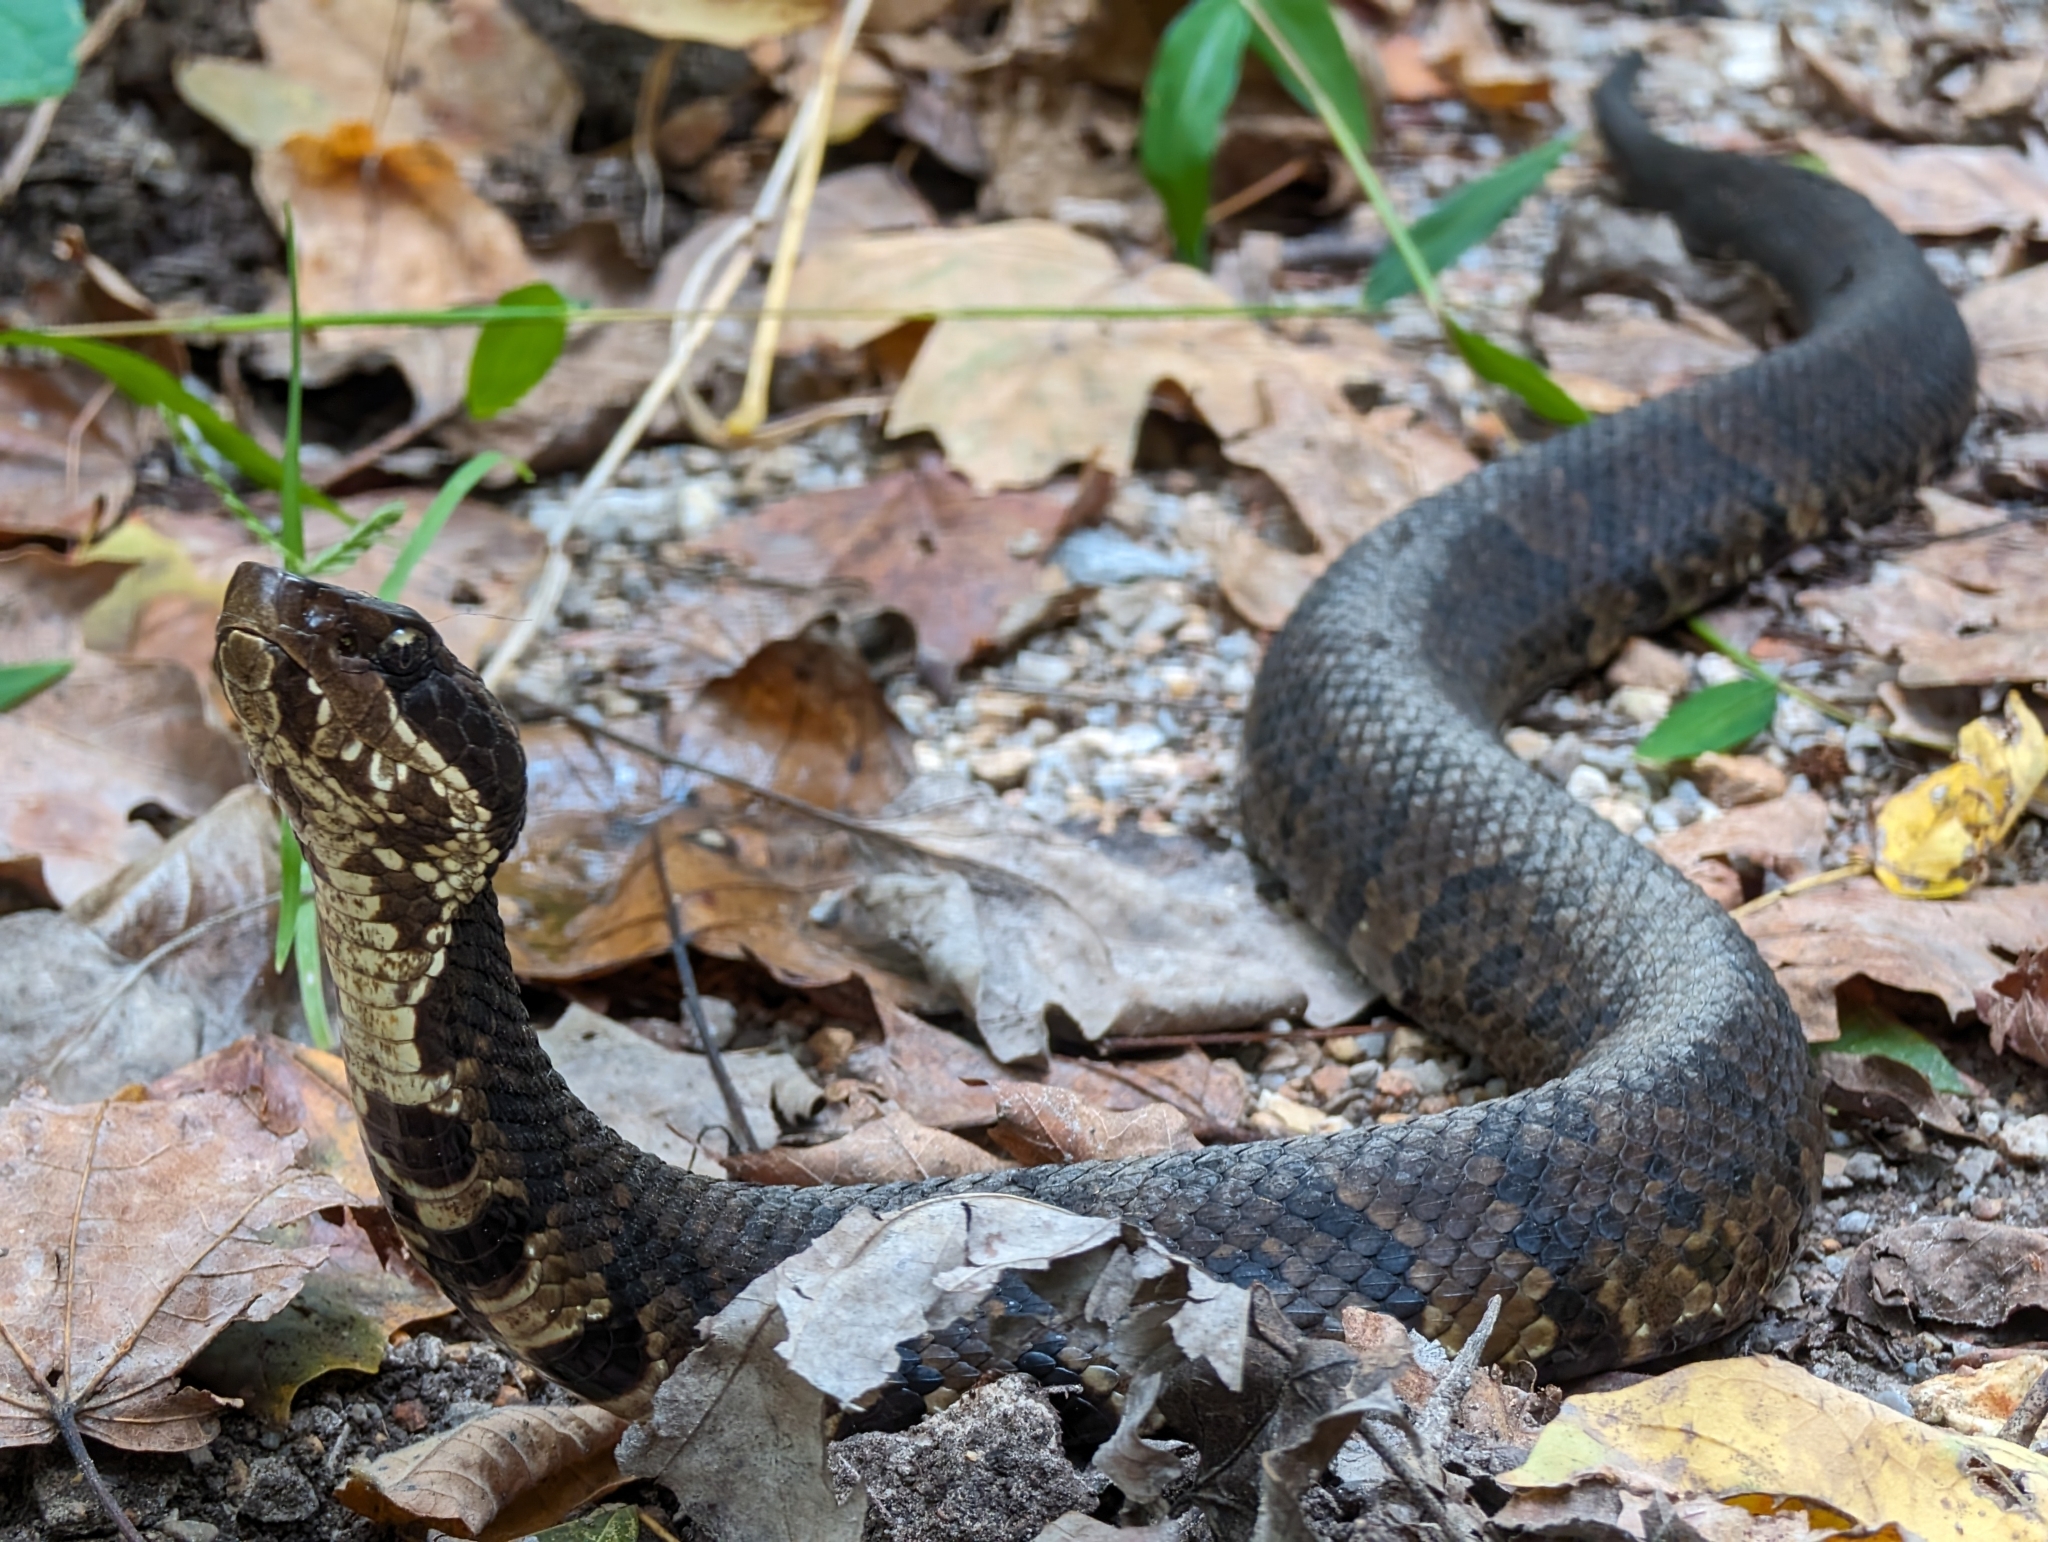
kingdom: Animalia
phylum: Chordata
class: Squamata
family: Viperidae
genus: Agkistrodon
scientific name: Agkistrodon piscivorus
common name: Cottonmouth
